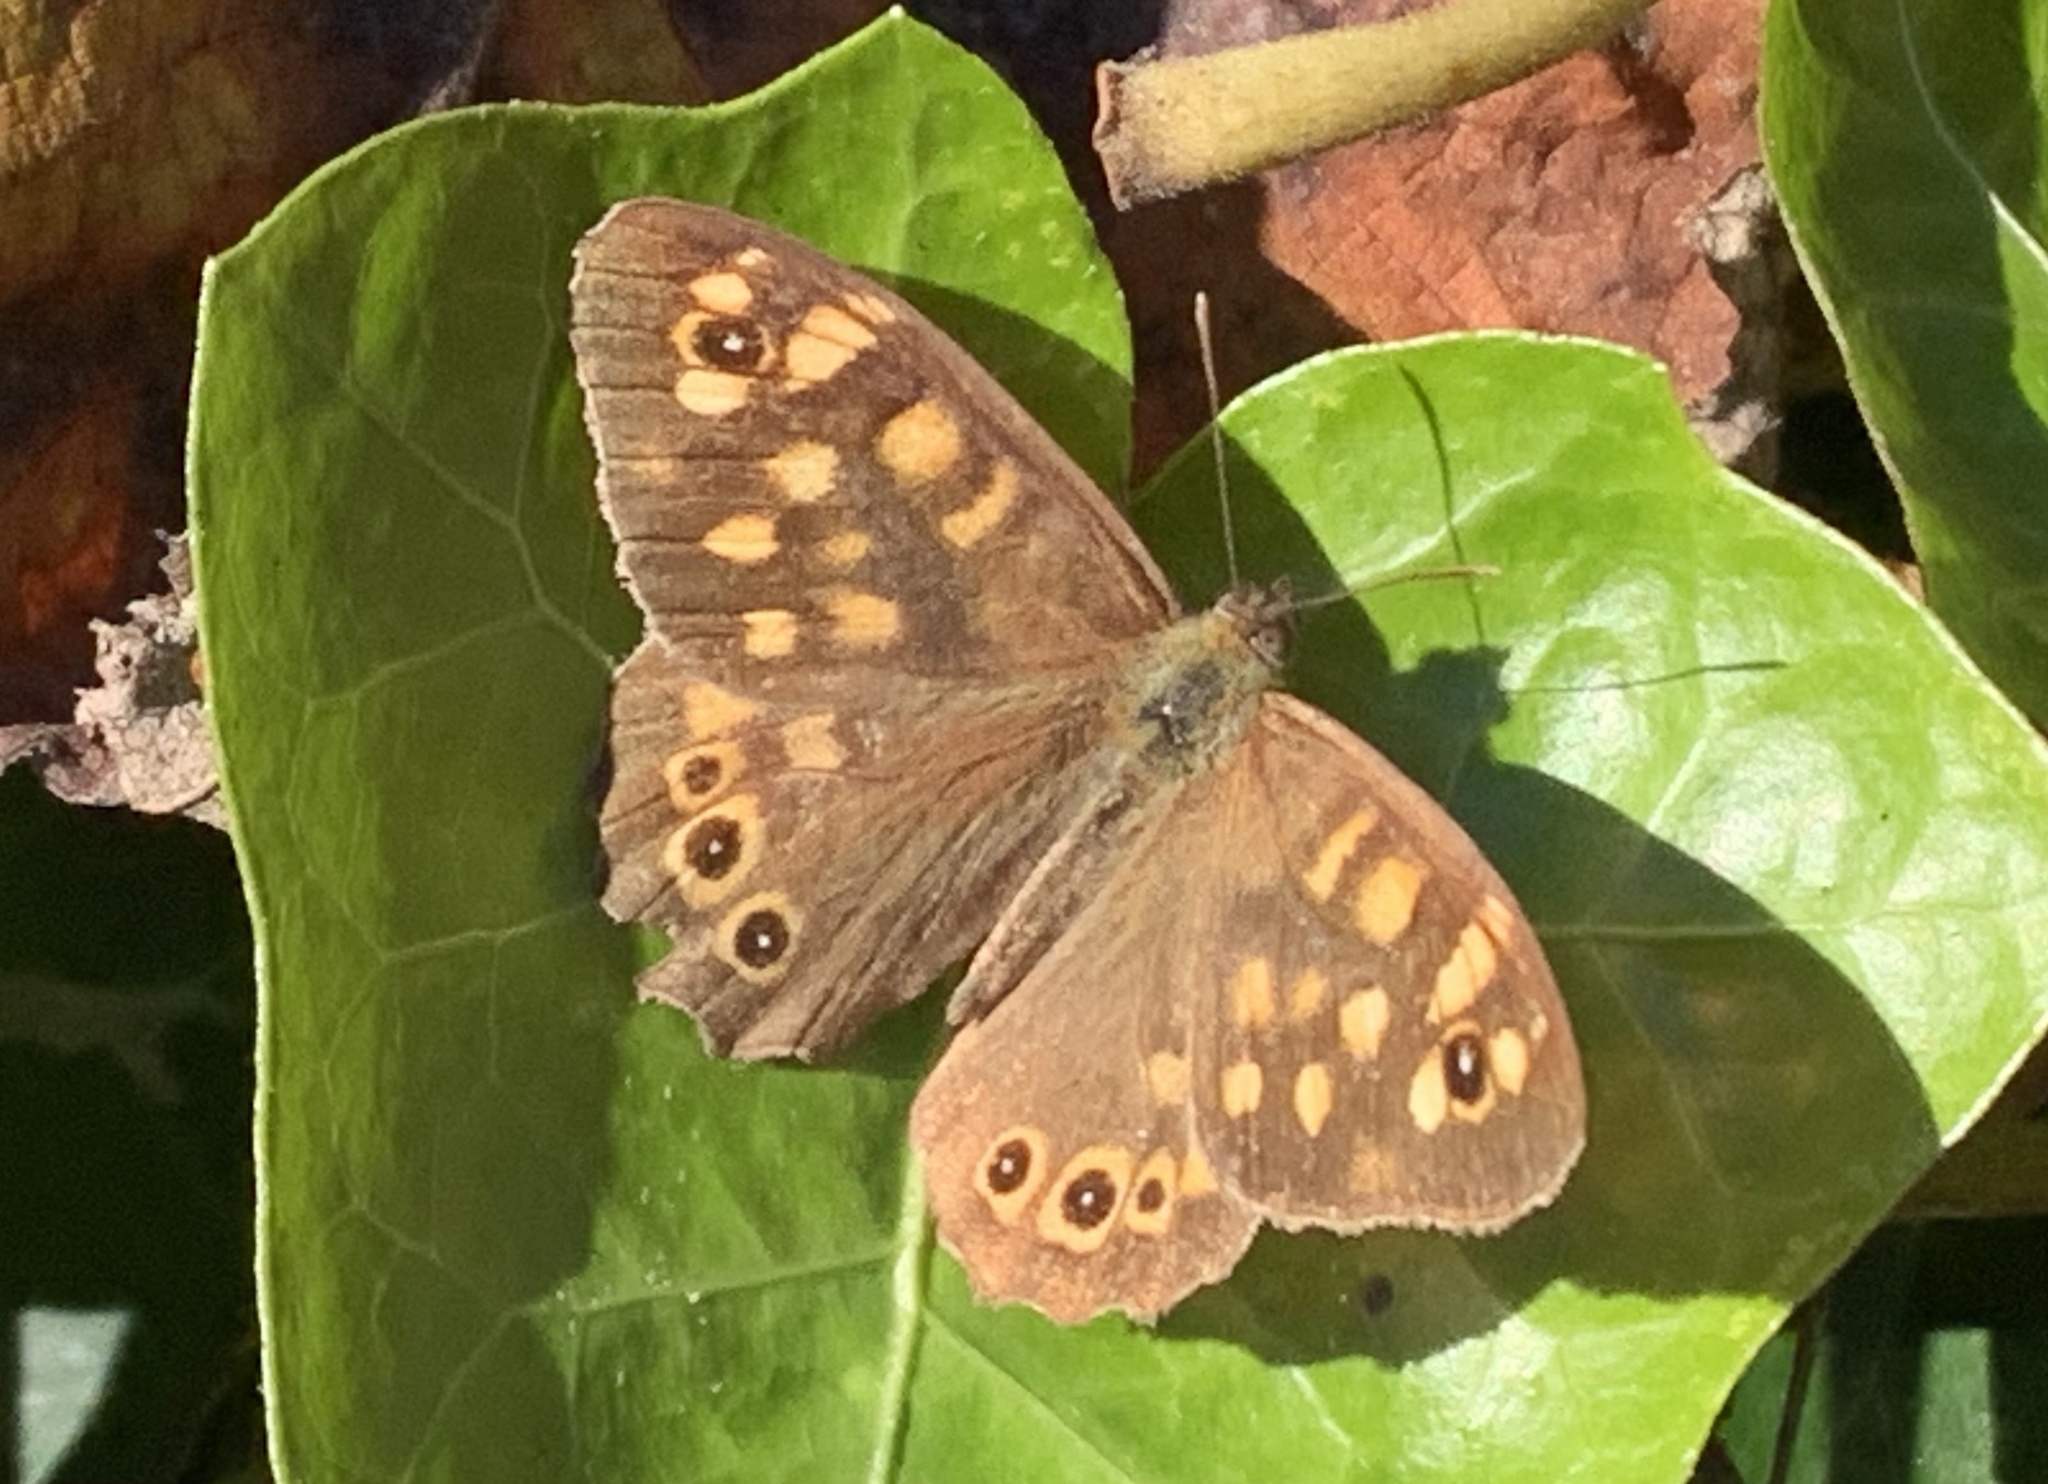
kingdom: Animalia
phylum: Arthropoda
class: Insecta
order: Lepidoptera
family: Nymphalidae
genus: Pararge
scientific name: Pararge aegeria
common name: Speckled wood
